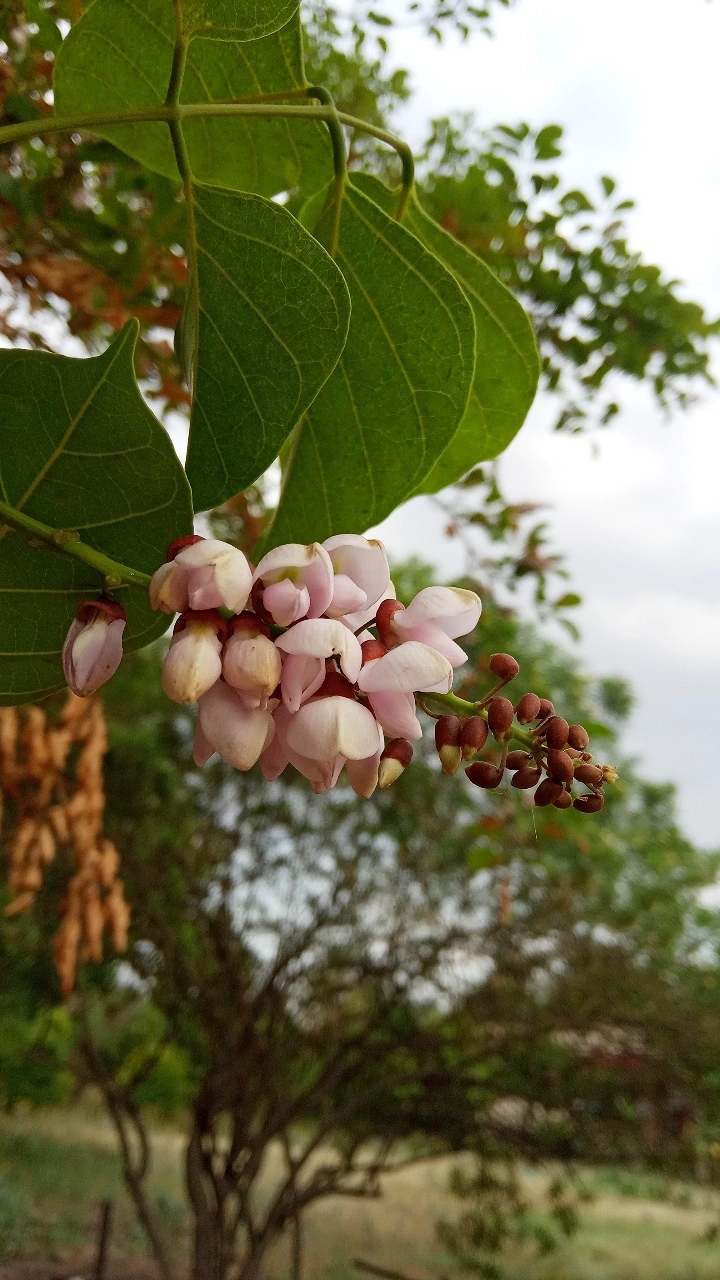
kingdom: Plantae
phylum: Tracheophyta
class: Magnoliopsida
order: Fabales
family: Fabaceae
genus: Pongamia
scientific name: Pongamia pinnata
